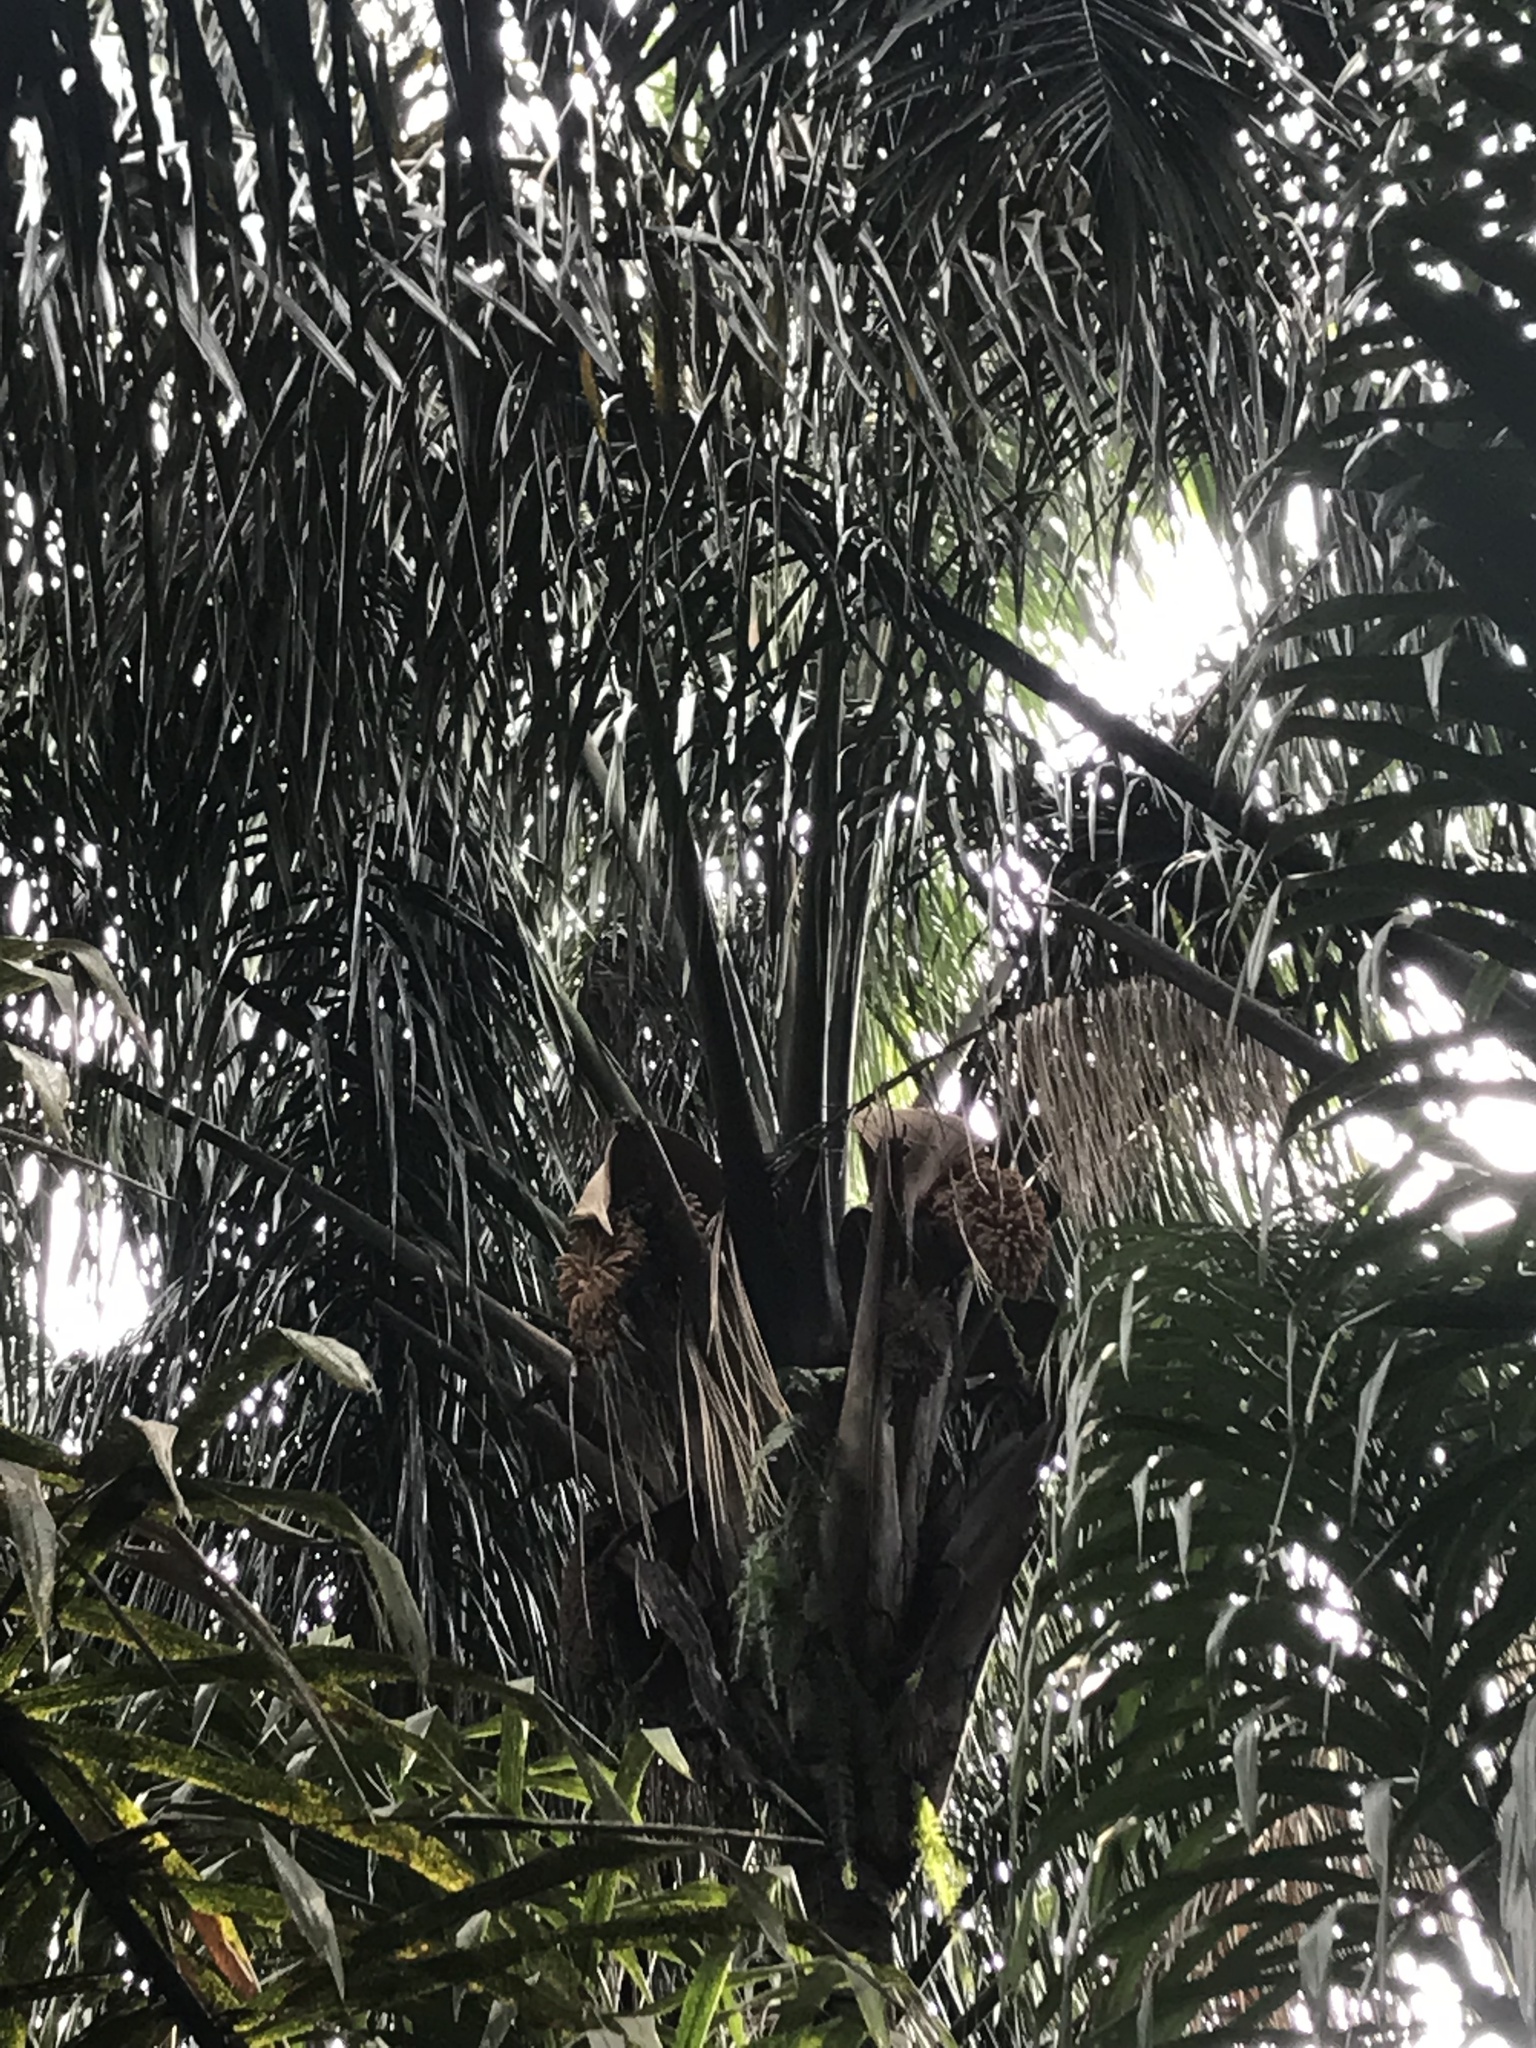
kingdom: Plantae
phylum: Tracheophyta
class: Liliopsida
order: Arecales
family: Arecaceae
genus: Attalea
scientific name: Attalea maripa
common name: Maripa palm
